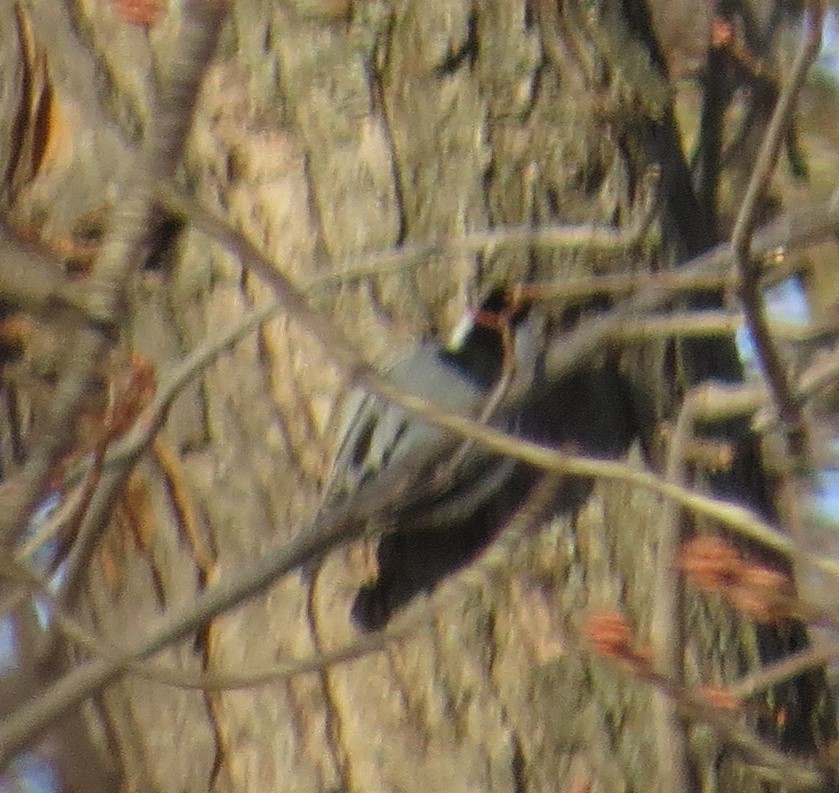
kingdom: Animalia
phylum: Chordata
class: Aves
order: Passeriformes
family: Sittidae
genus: Sitta
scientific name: Sitta carolinensis
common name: White-breasted nuthatch
